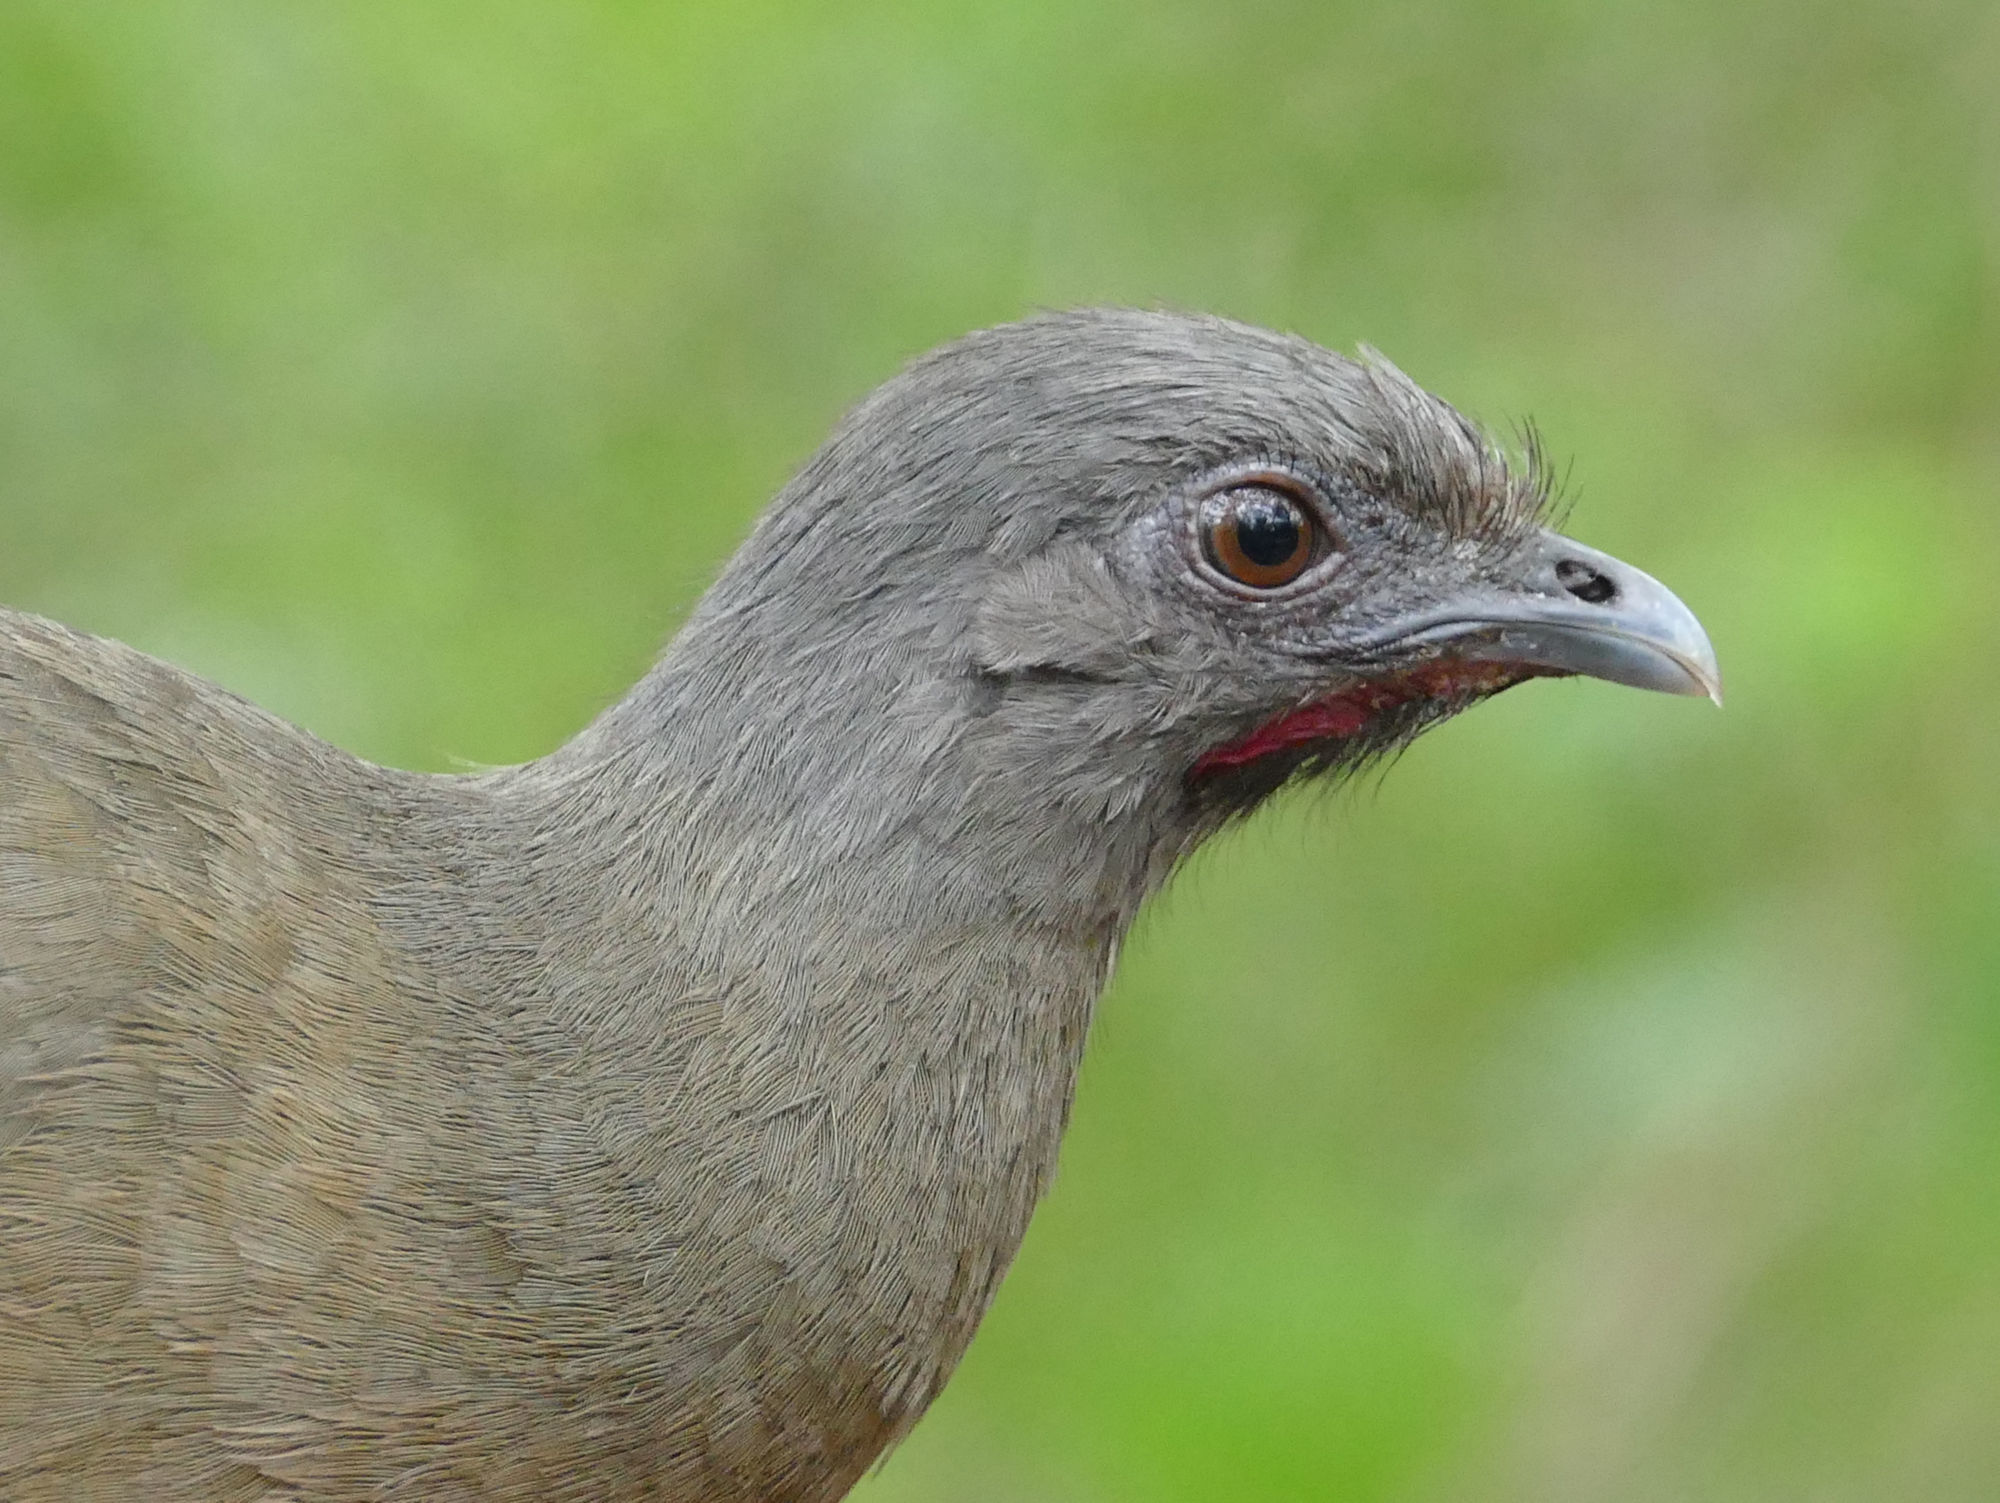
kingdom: Animalia
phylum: Chordata
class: Aves
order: Galliformes
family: Cracidae
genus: Ortalis
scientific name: Ortalis vetula
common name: Plain chachalaca
